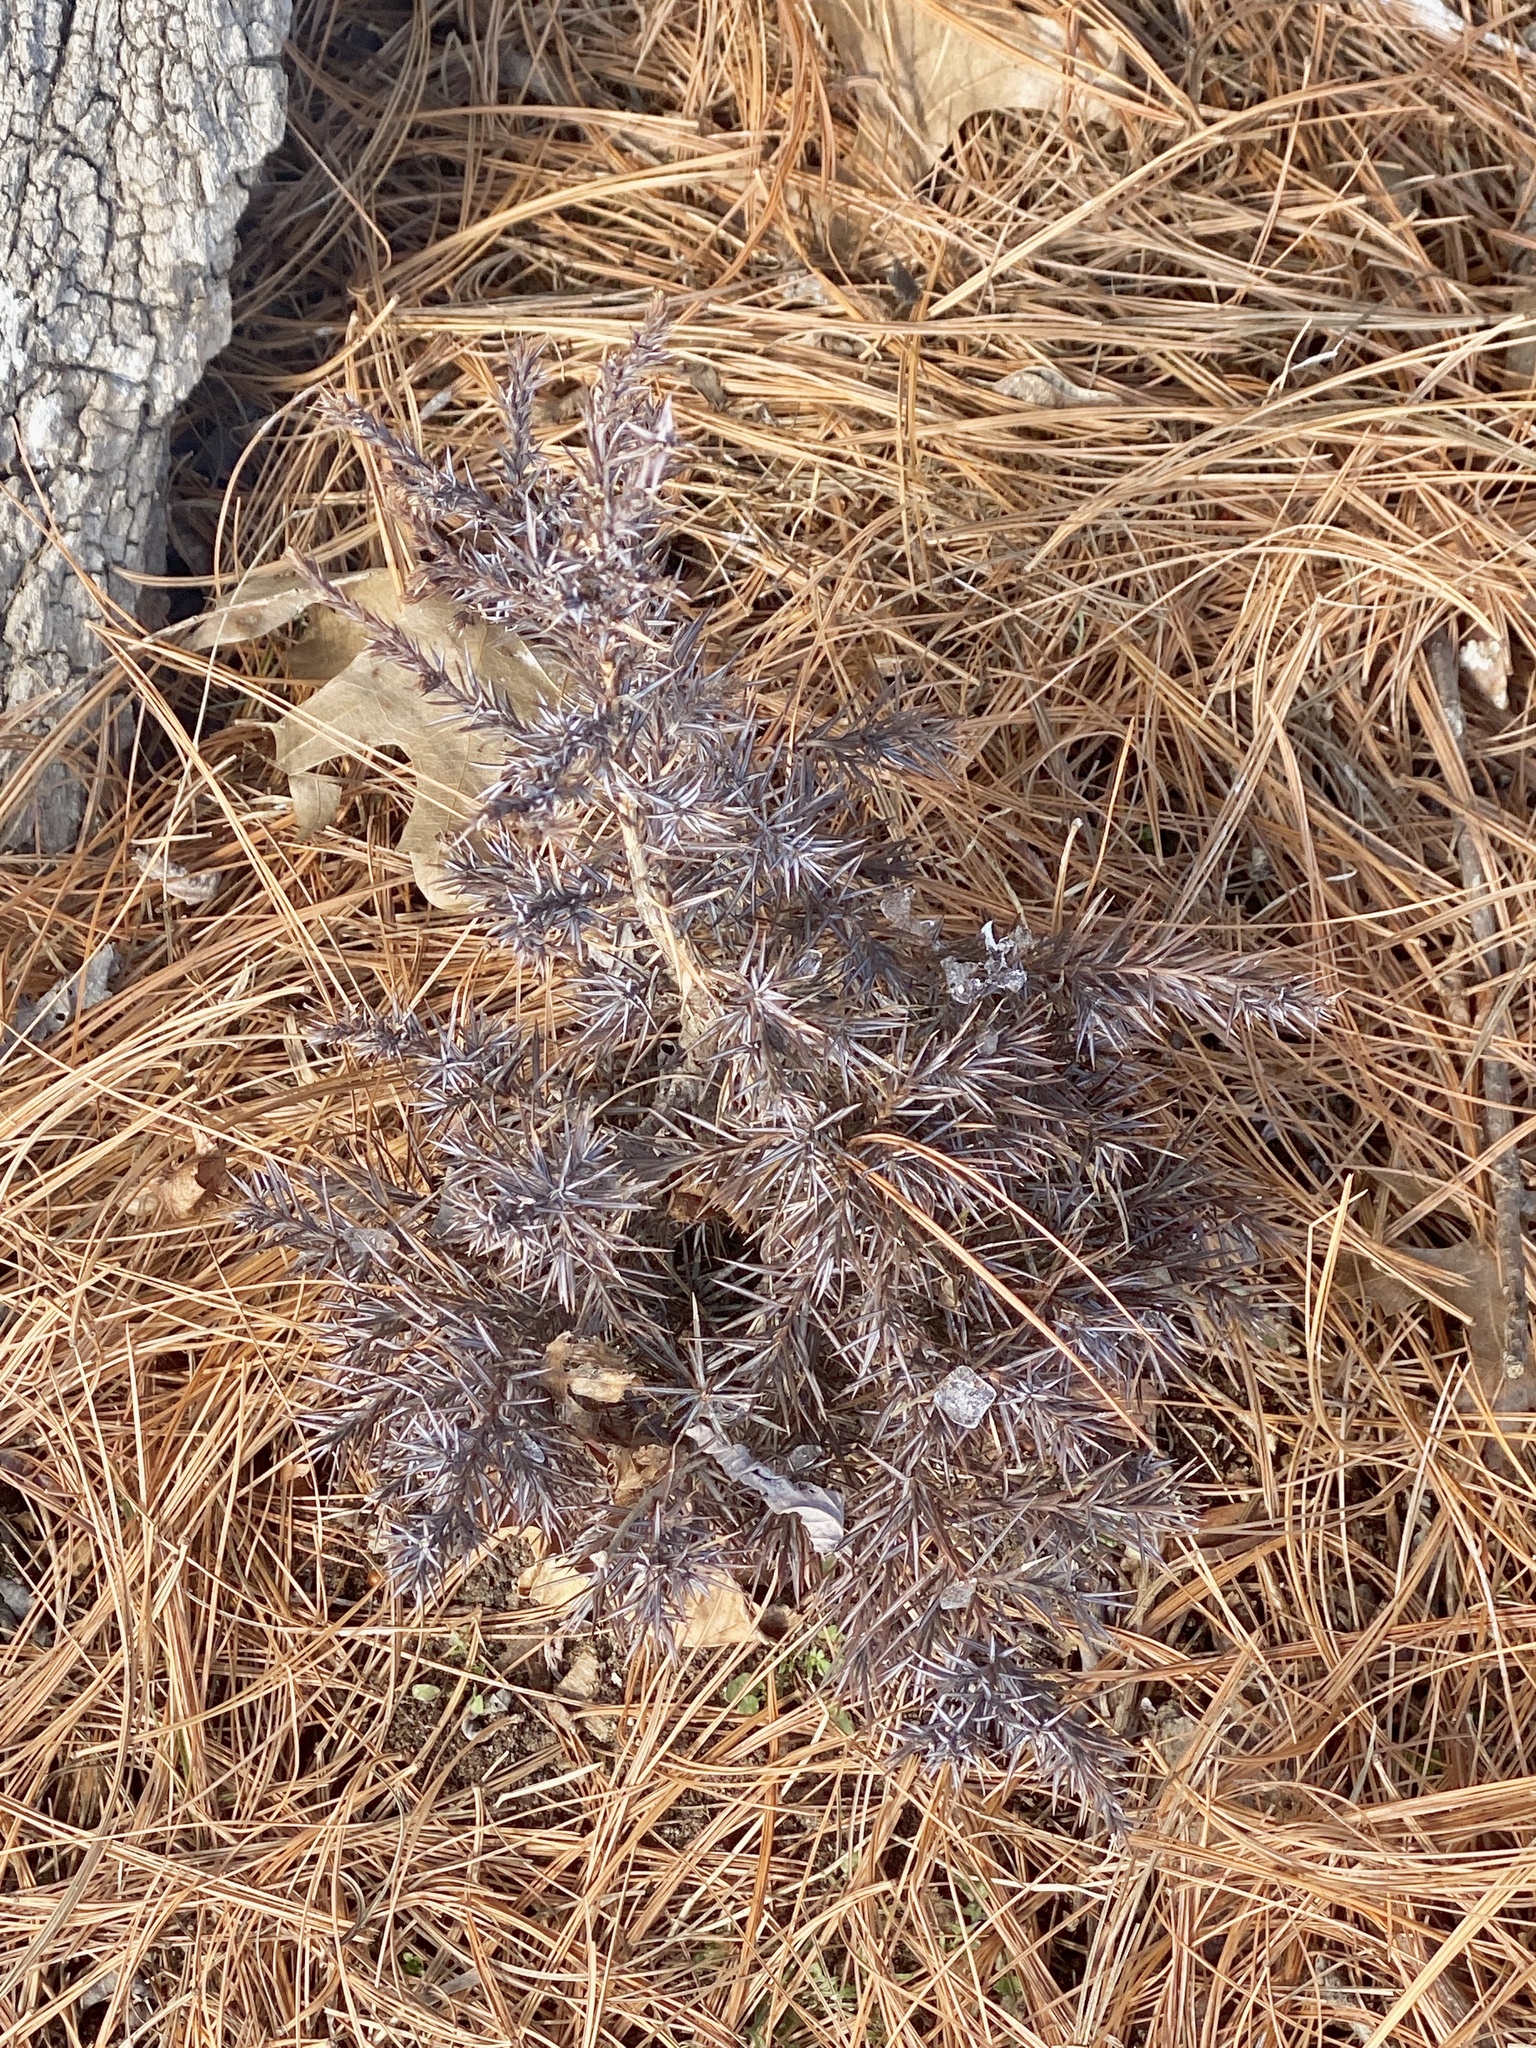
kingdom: Plantae
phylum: Tracheophyta
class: Pinopsida
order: Pinales
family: Cupressaceae
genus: Juniperus
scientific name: Juniperus virginiana
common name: Red juniper
